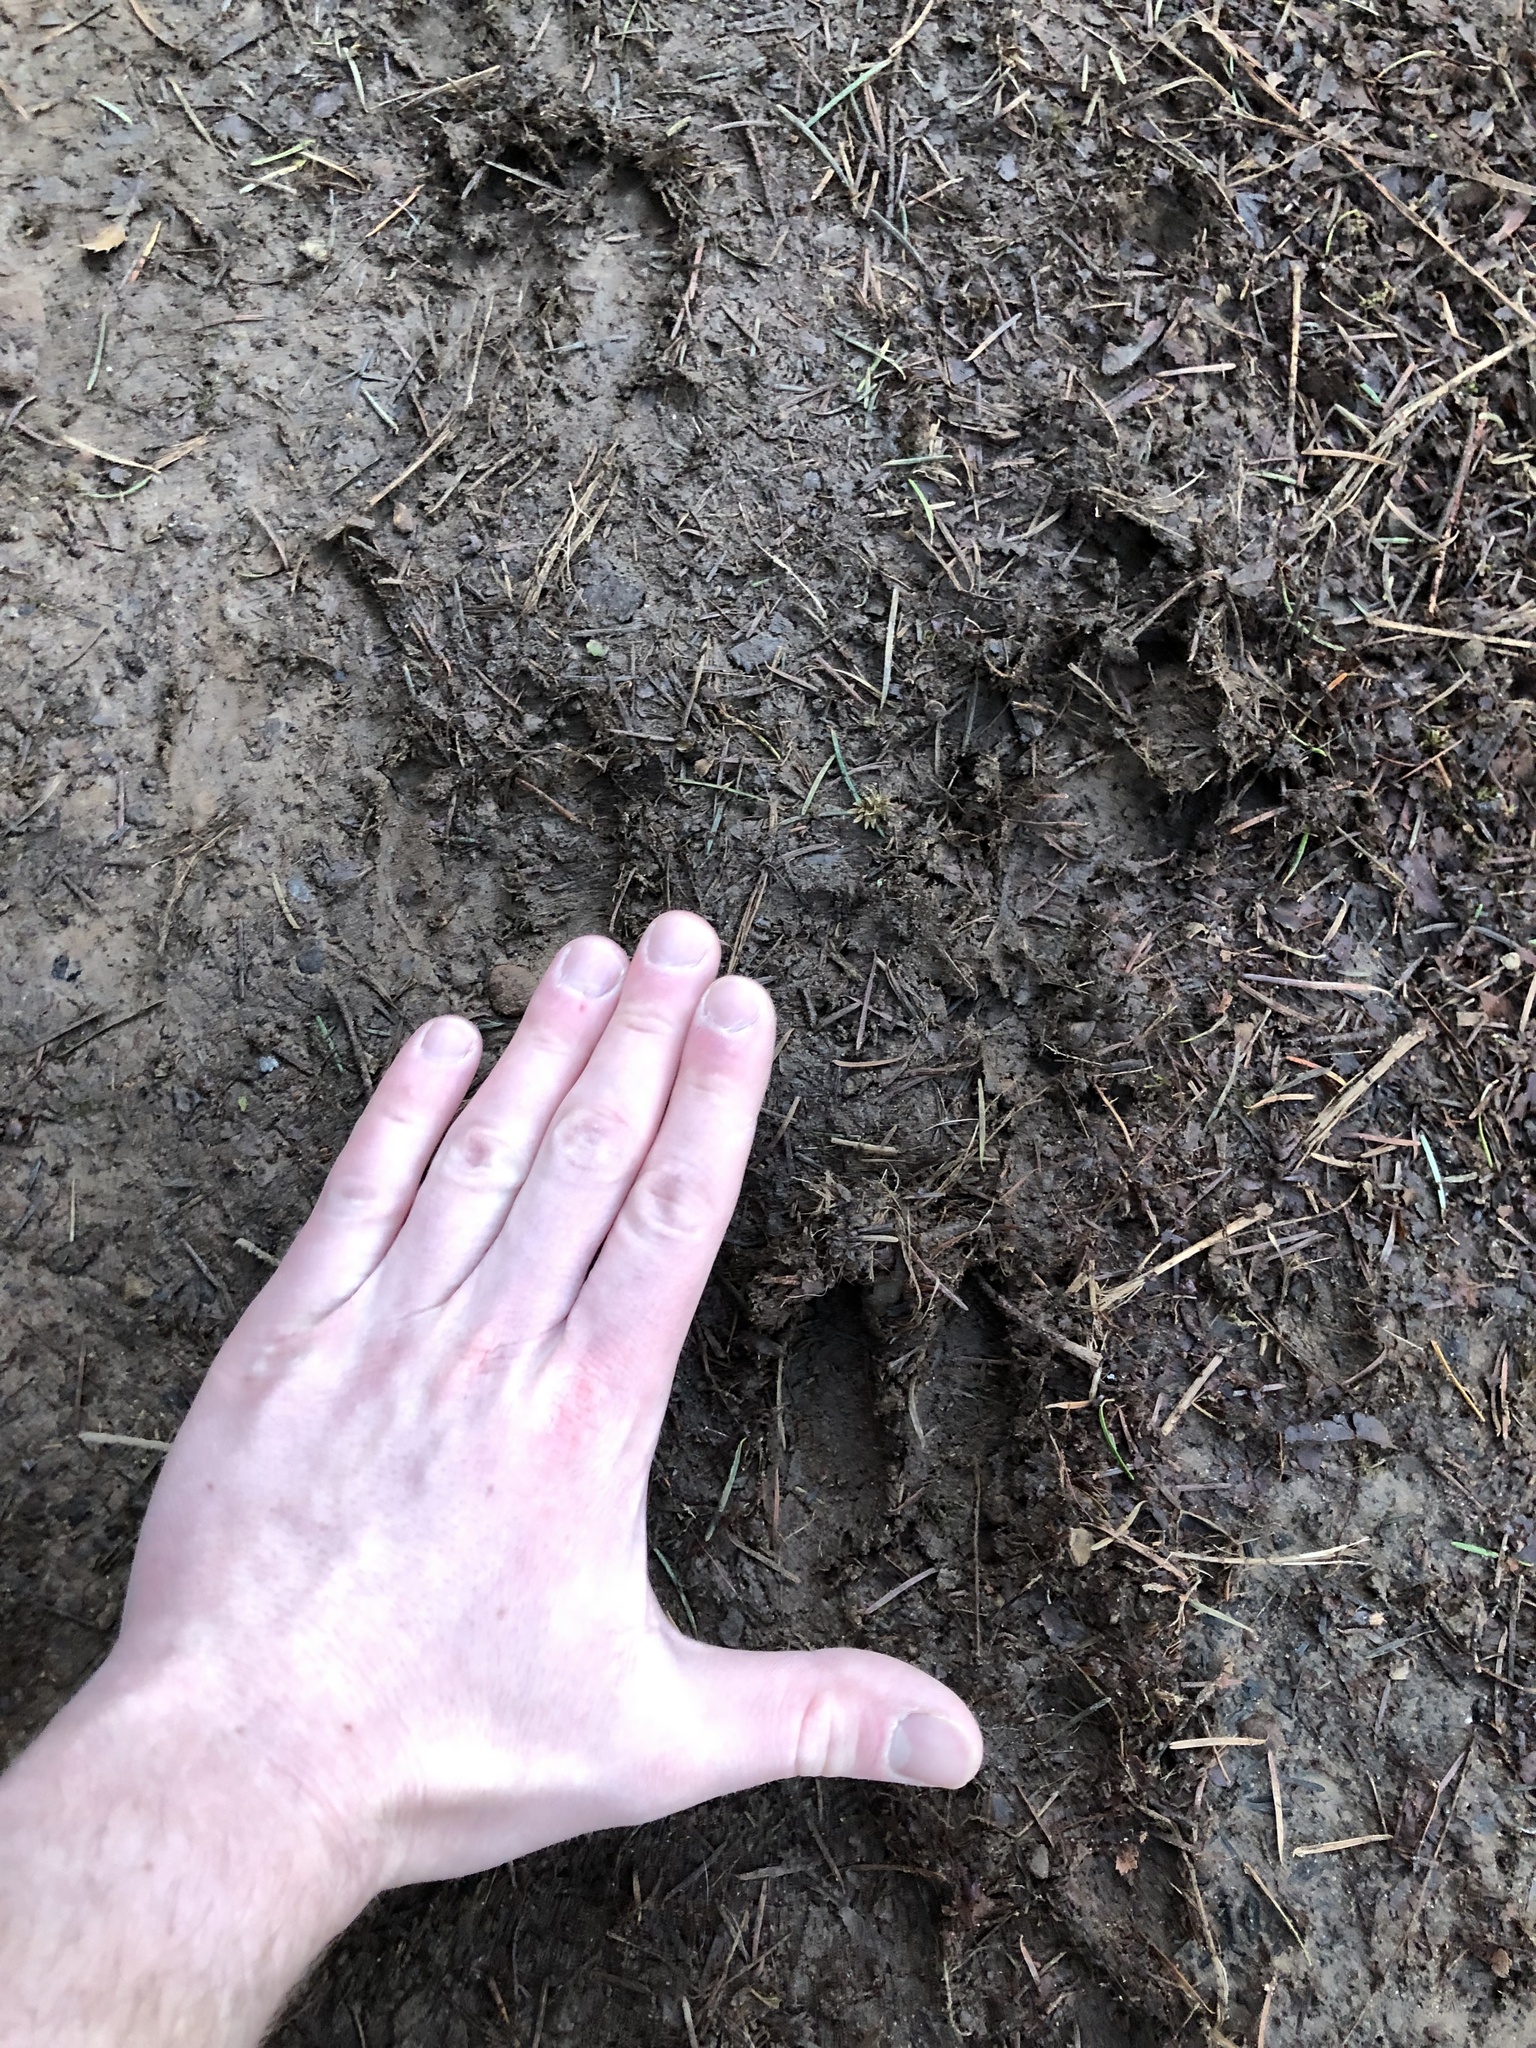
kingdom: Animalia
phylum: Chordata
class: Mammalia
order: Artiodactyla
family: Cervidae
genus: Odocoileus
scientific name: Odocoileus hemionus
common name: Mule deer
